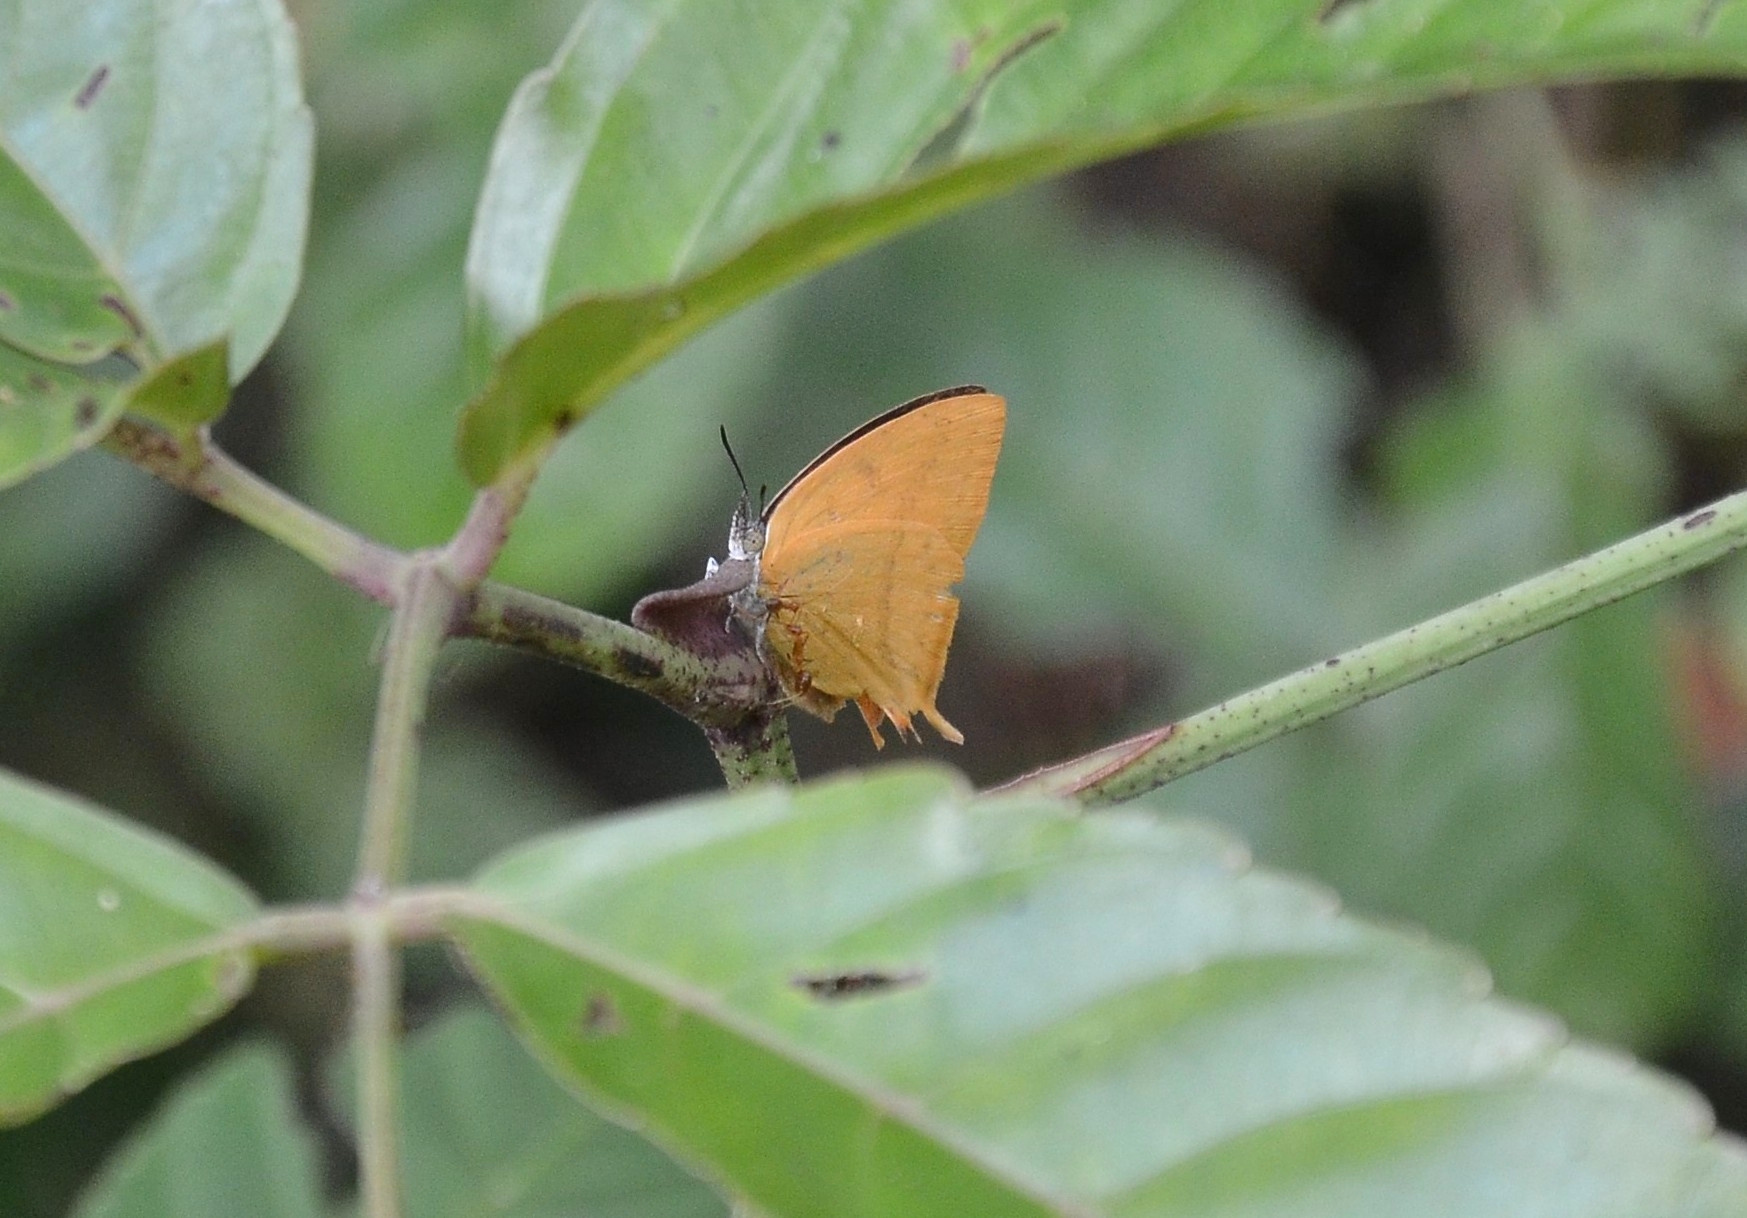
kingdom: Animalia
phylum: Arthropoda
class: Insecta
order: Lepidoptera
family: Lycaenidae
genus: Loxura
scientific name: Loxura atymnus
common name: Common yamfly
